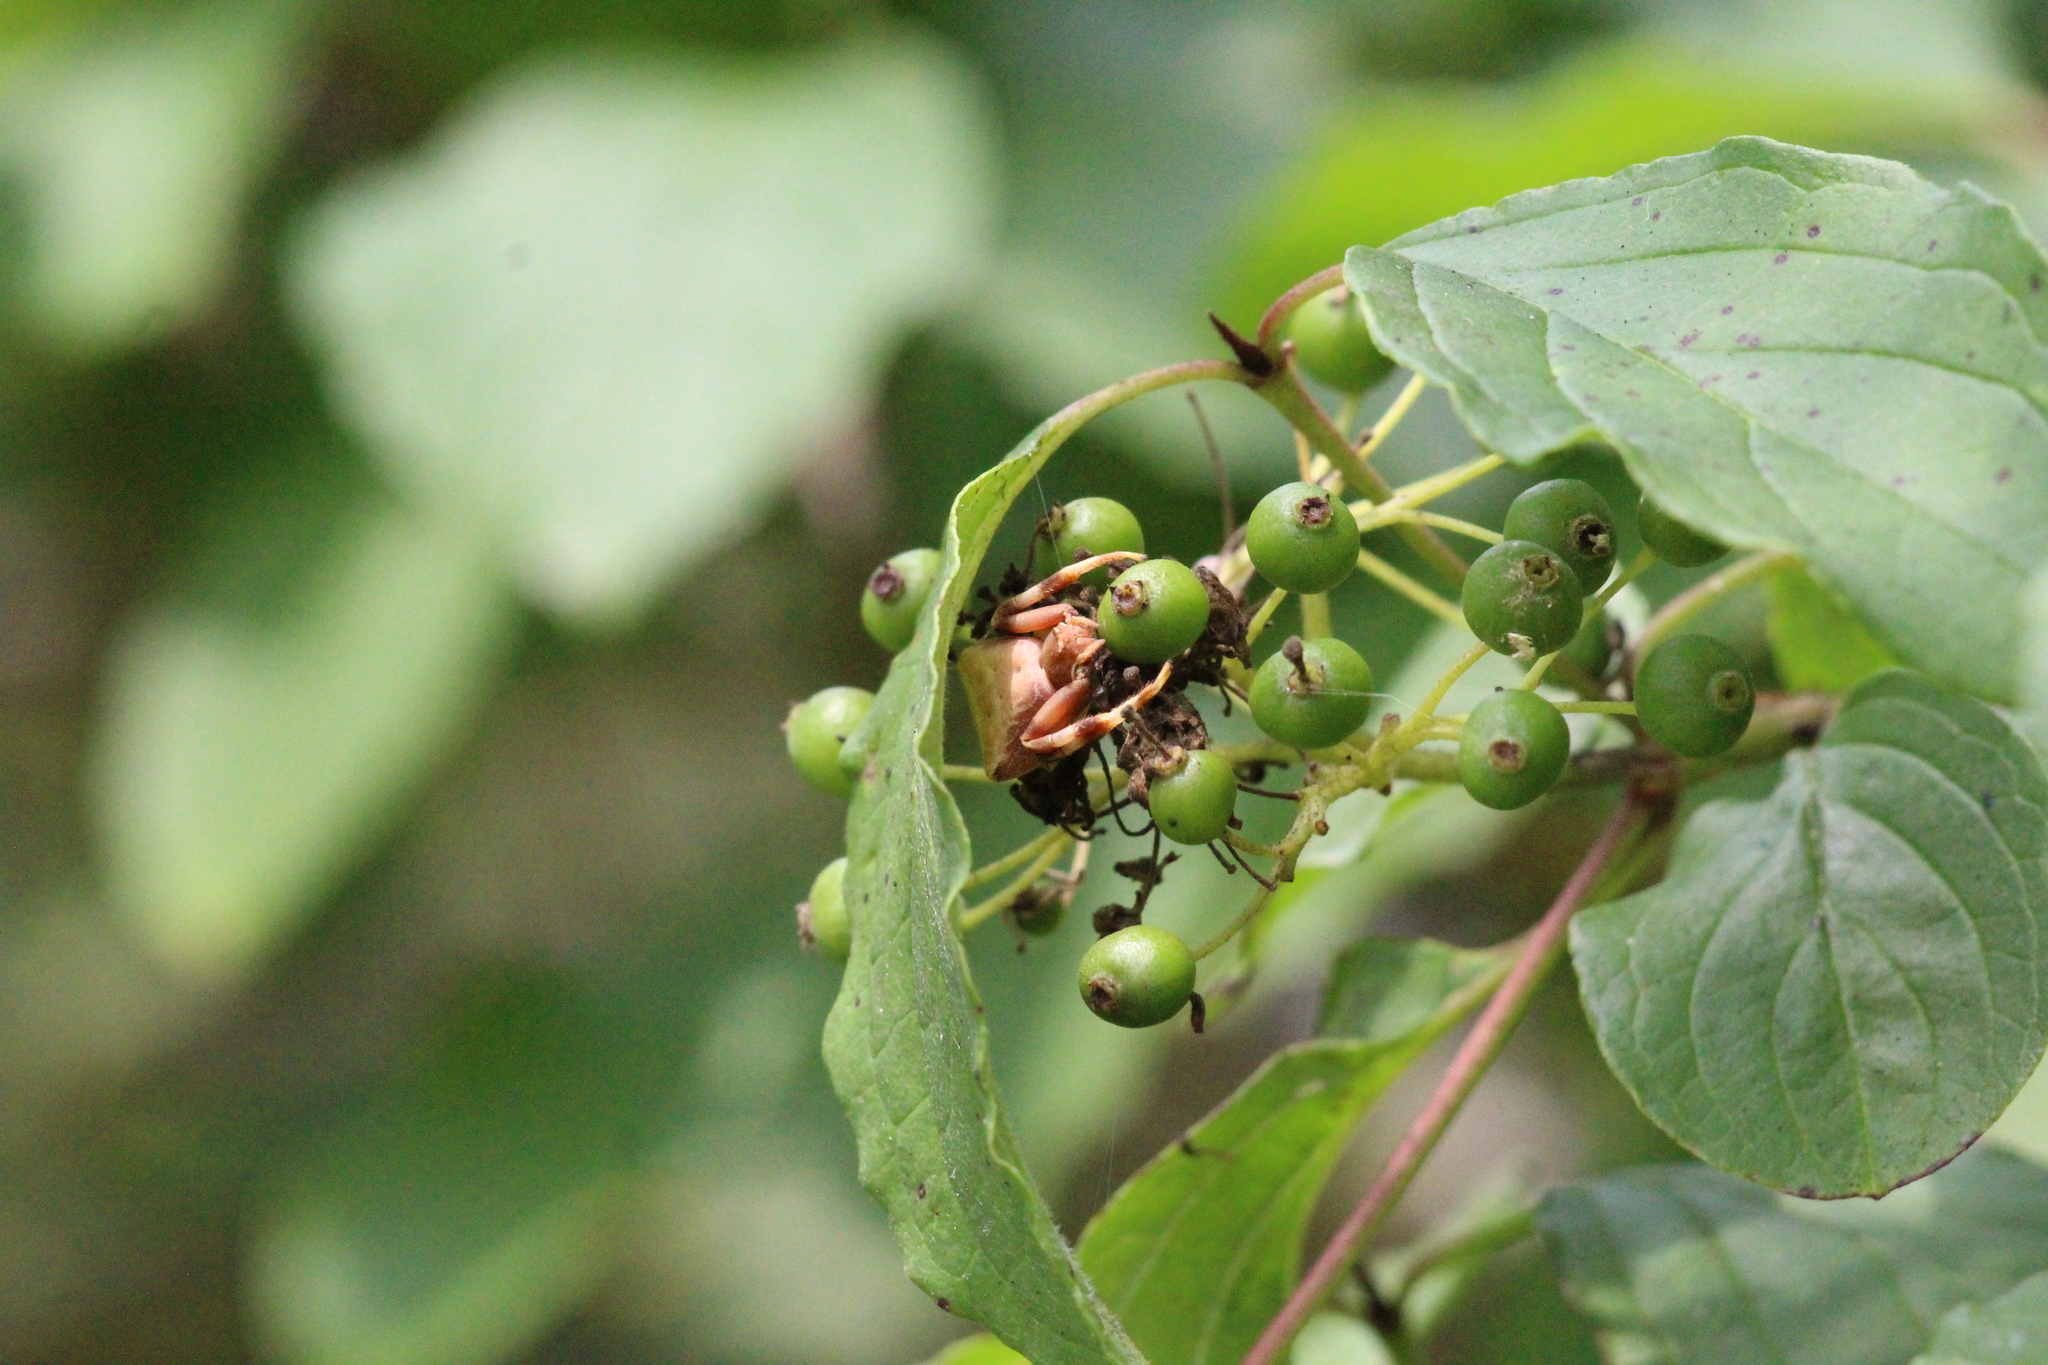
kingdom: Animalia
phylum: Arthropoda
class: Arachnida
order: Araneae
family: Thomisidae
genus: Pistius
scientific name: Pistius truncatus
